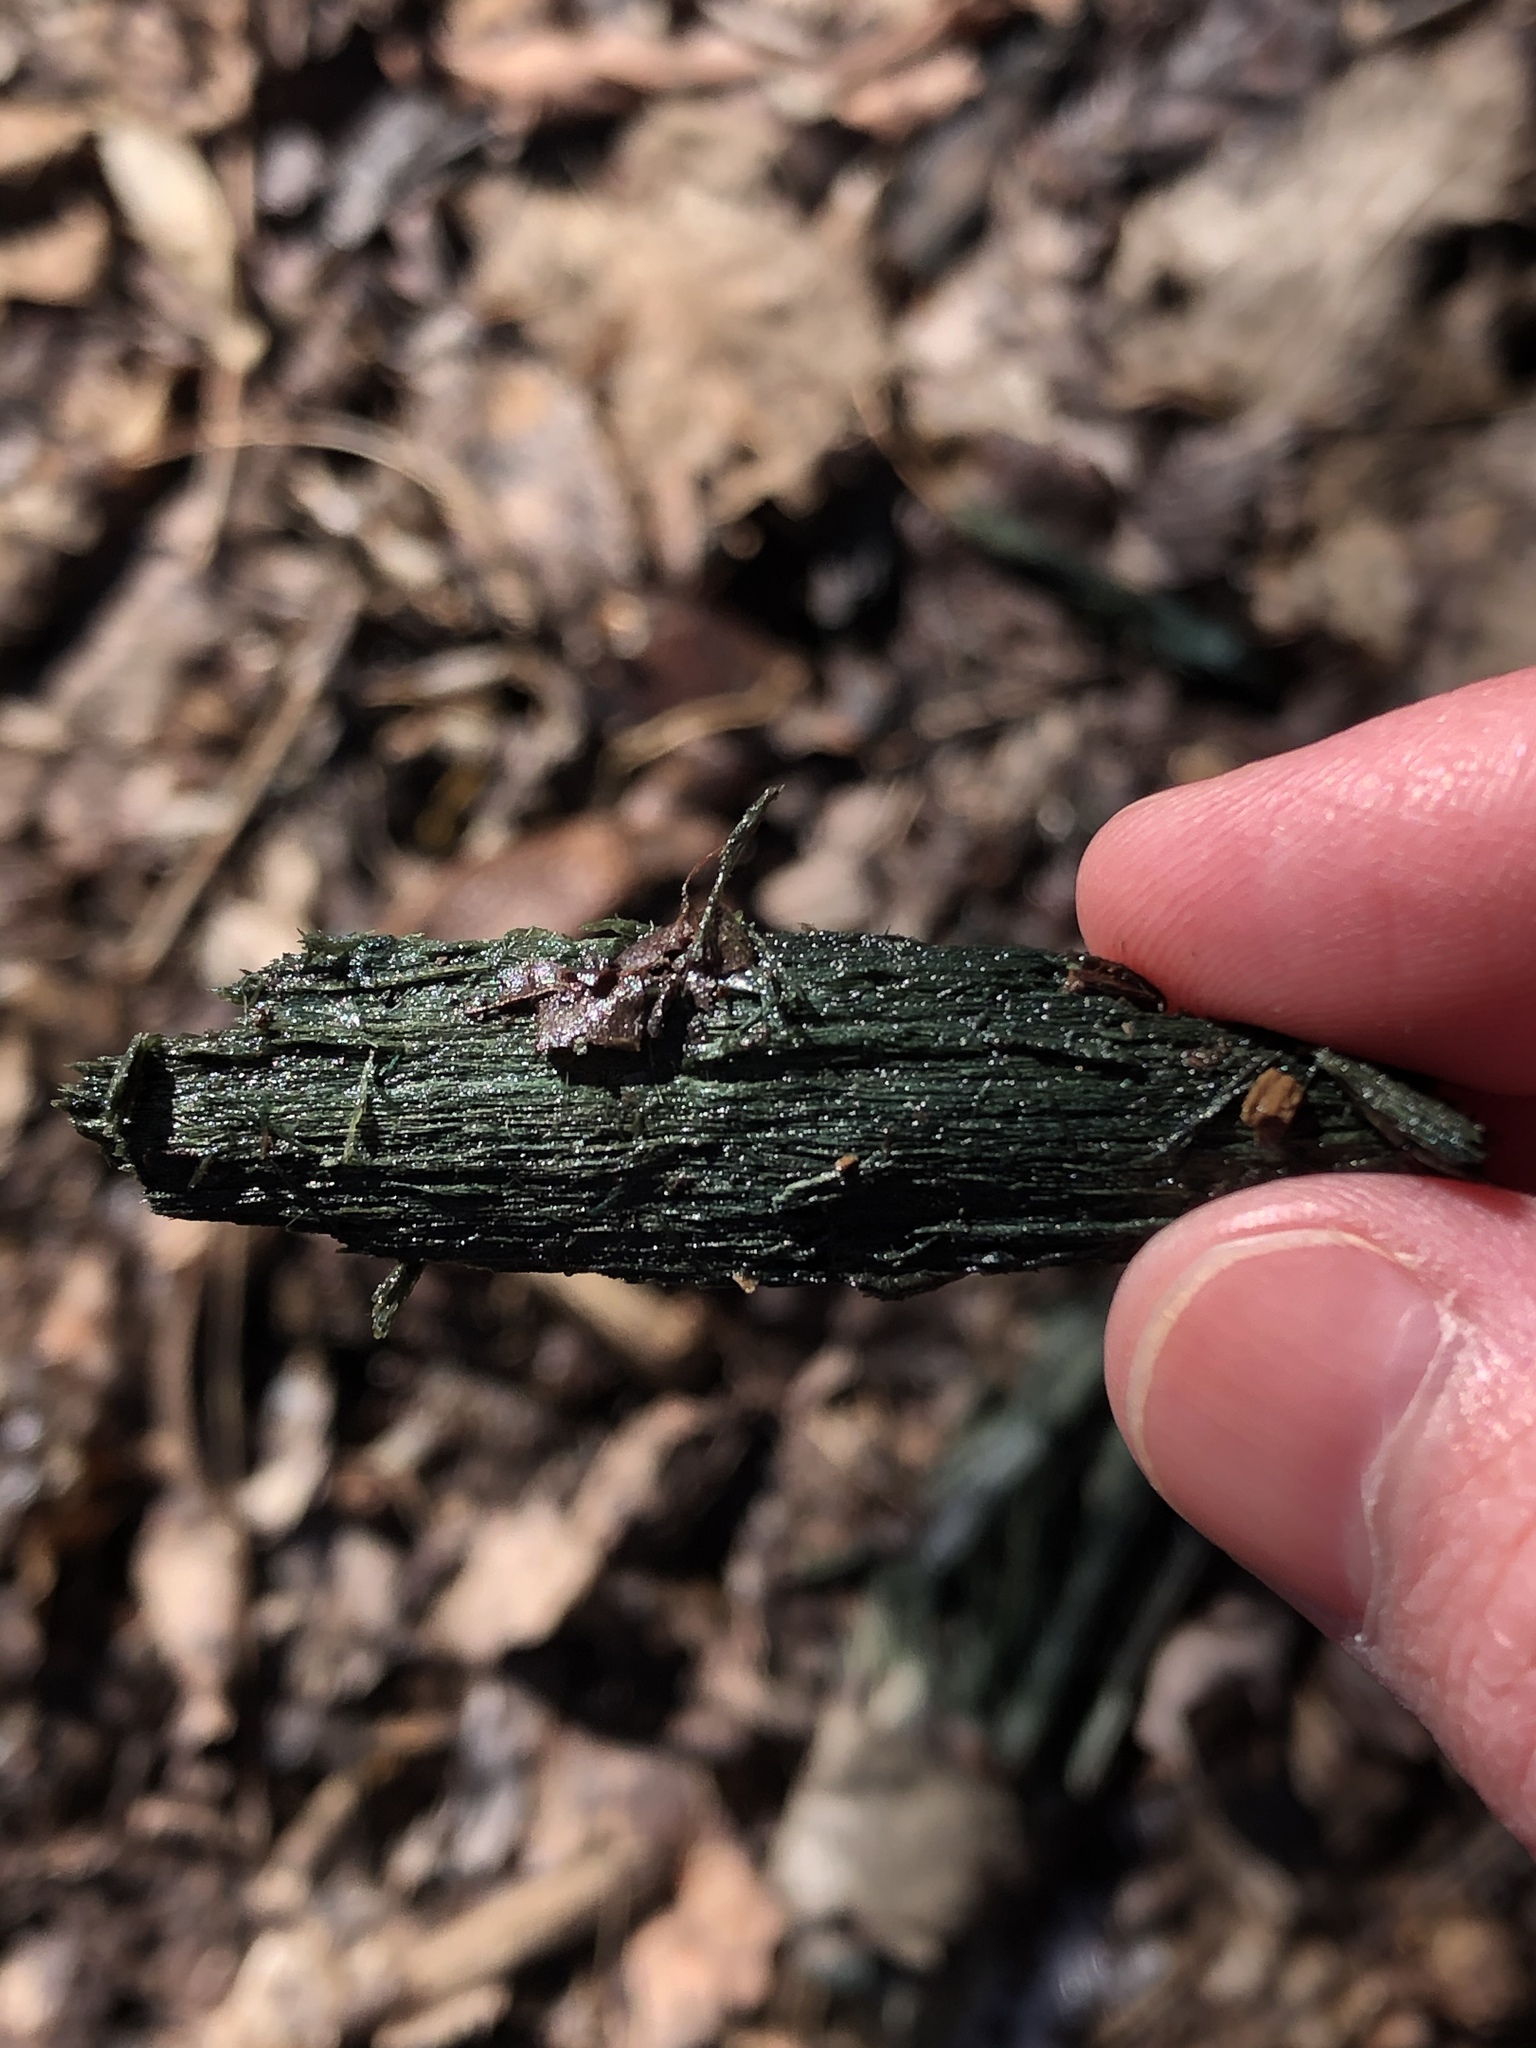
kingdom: Fungi
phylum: Ascomycota
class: Leotiomycetes
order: Helotiales
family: Chlorociboriaceae
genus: Chlorociboria
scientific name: Chlorociboria
